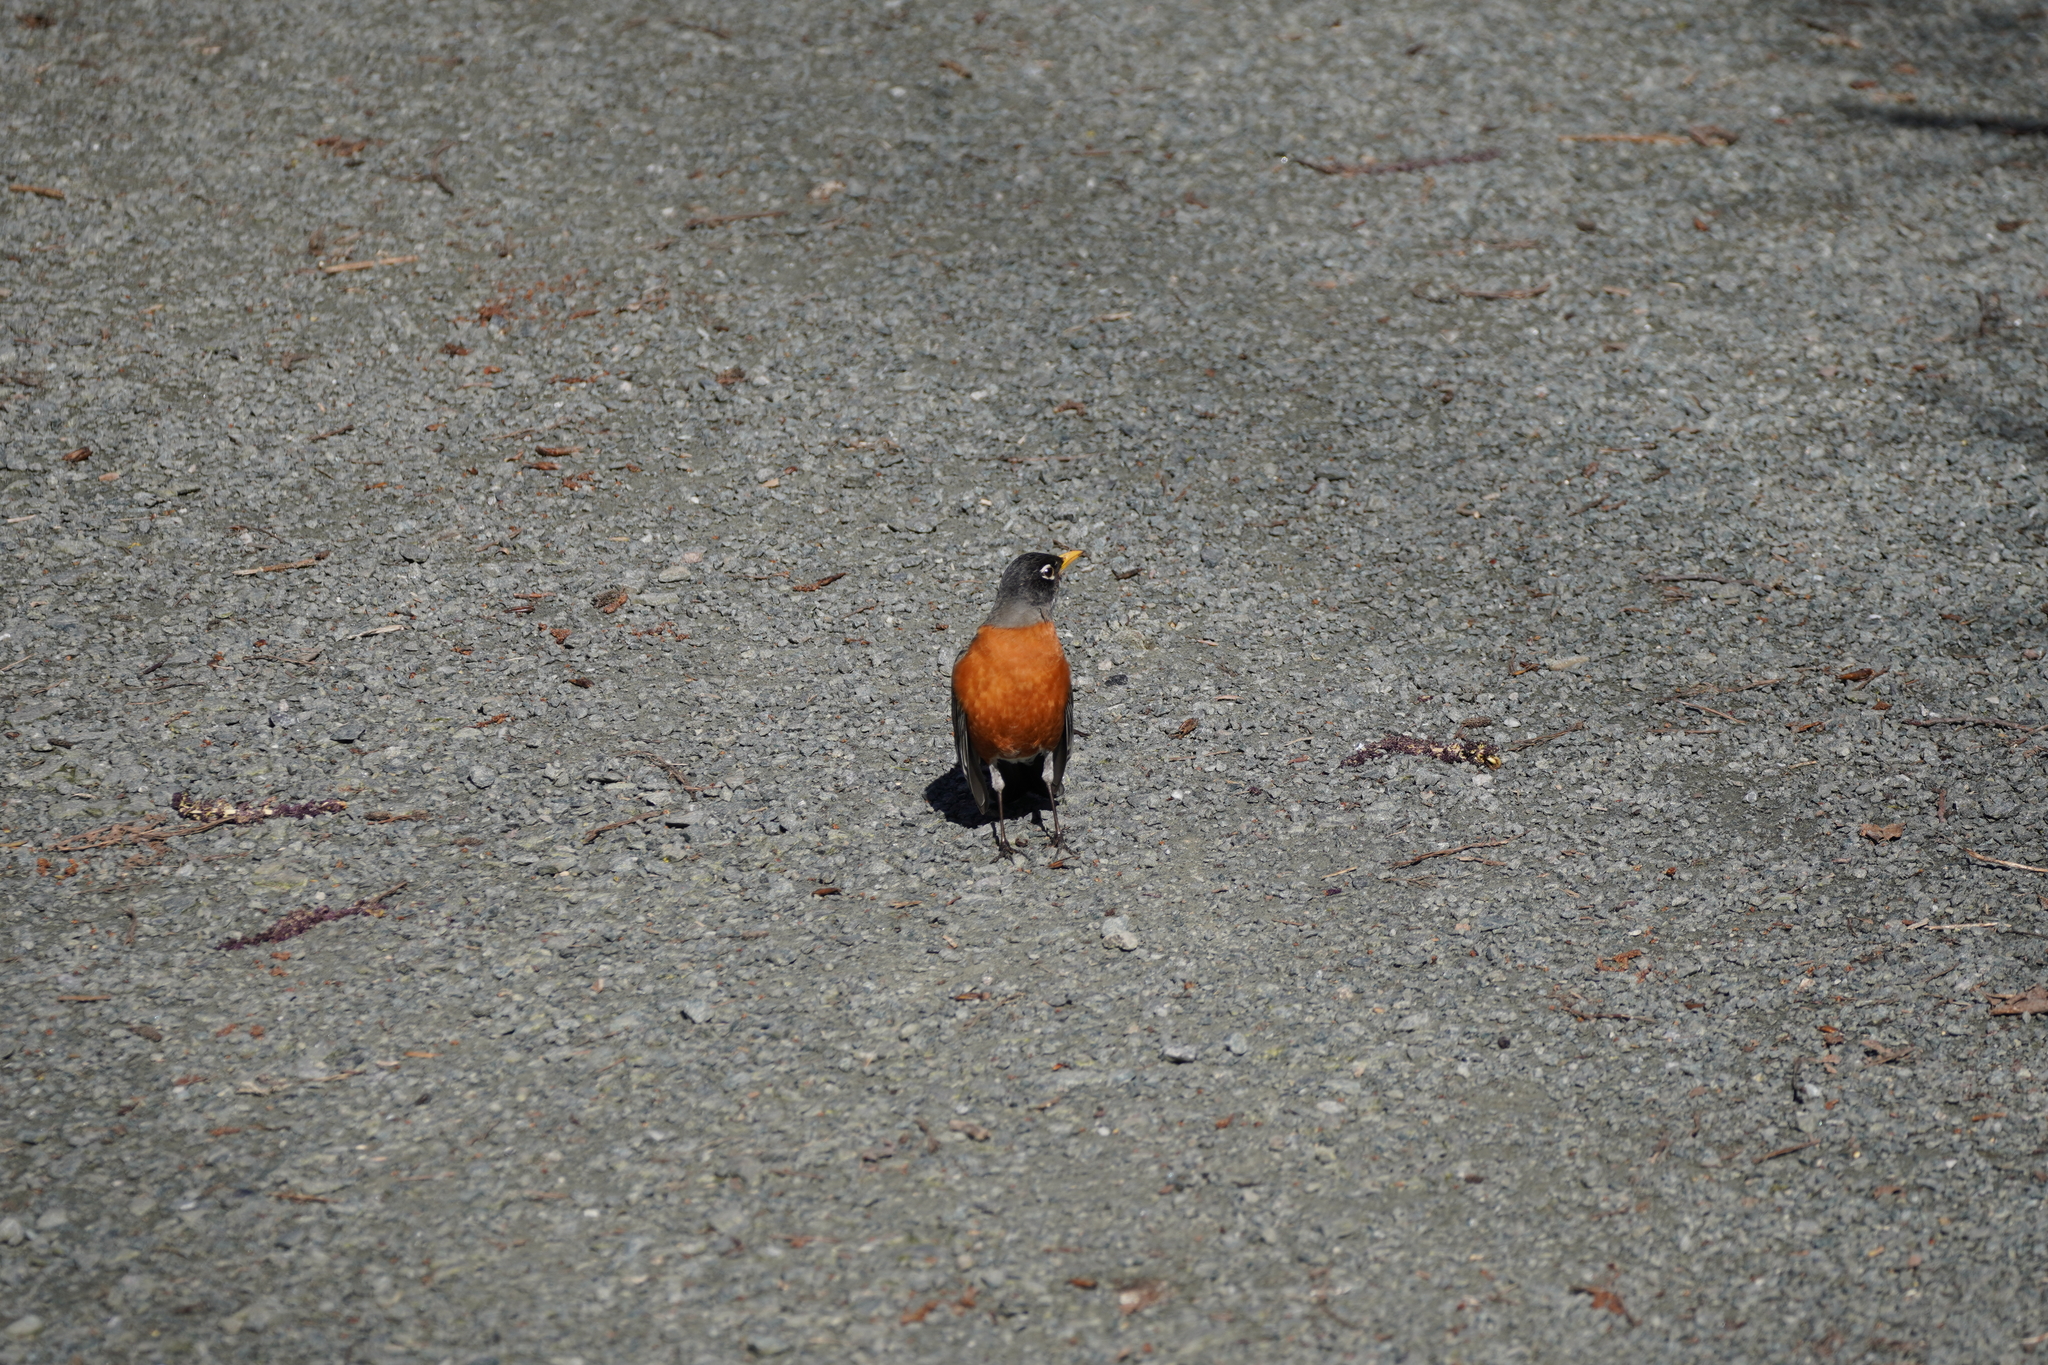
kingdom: Animalia
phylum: Chordata
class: Aves
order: Passeriformes
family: Turdidae
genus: Turdus
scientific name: Turdus migratorius
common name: American robin
